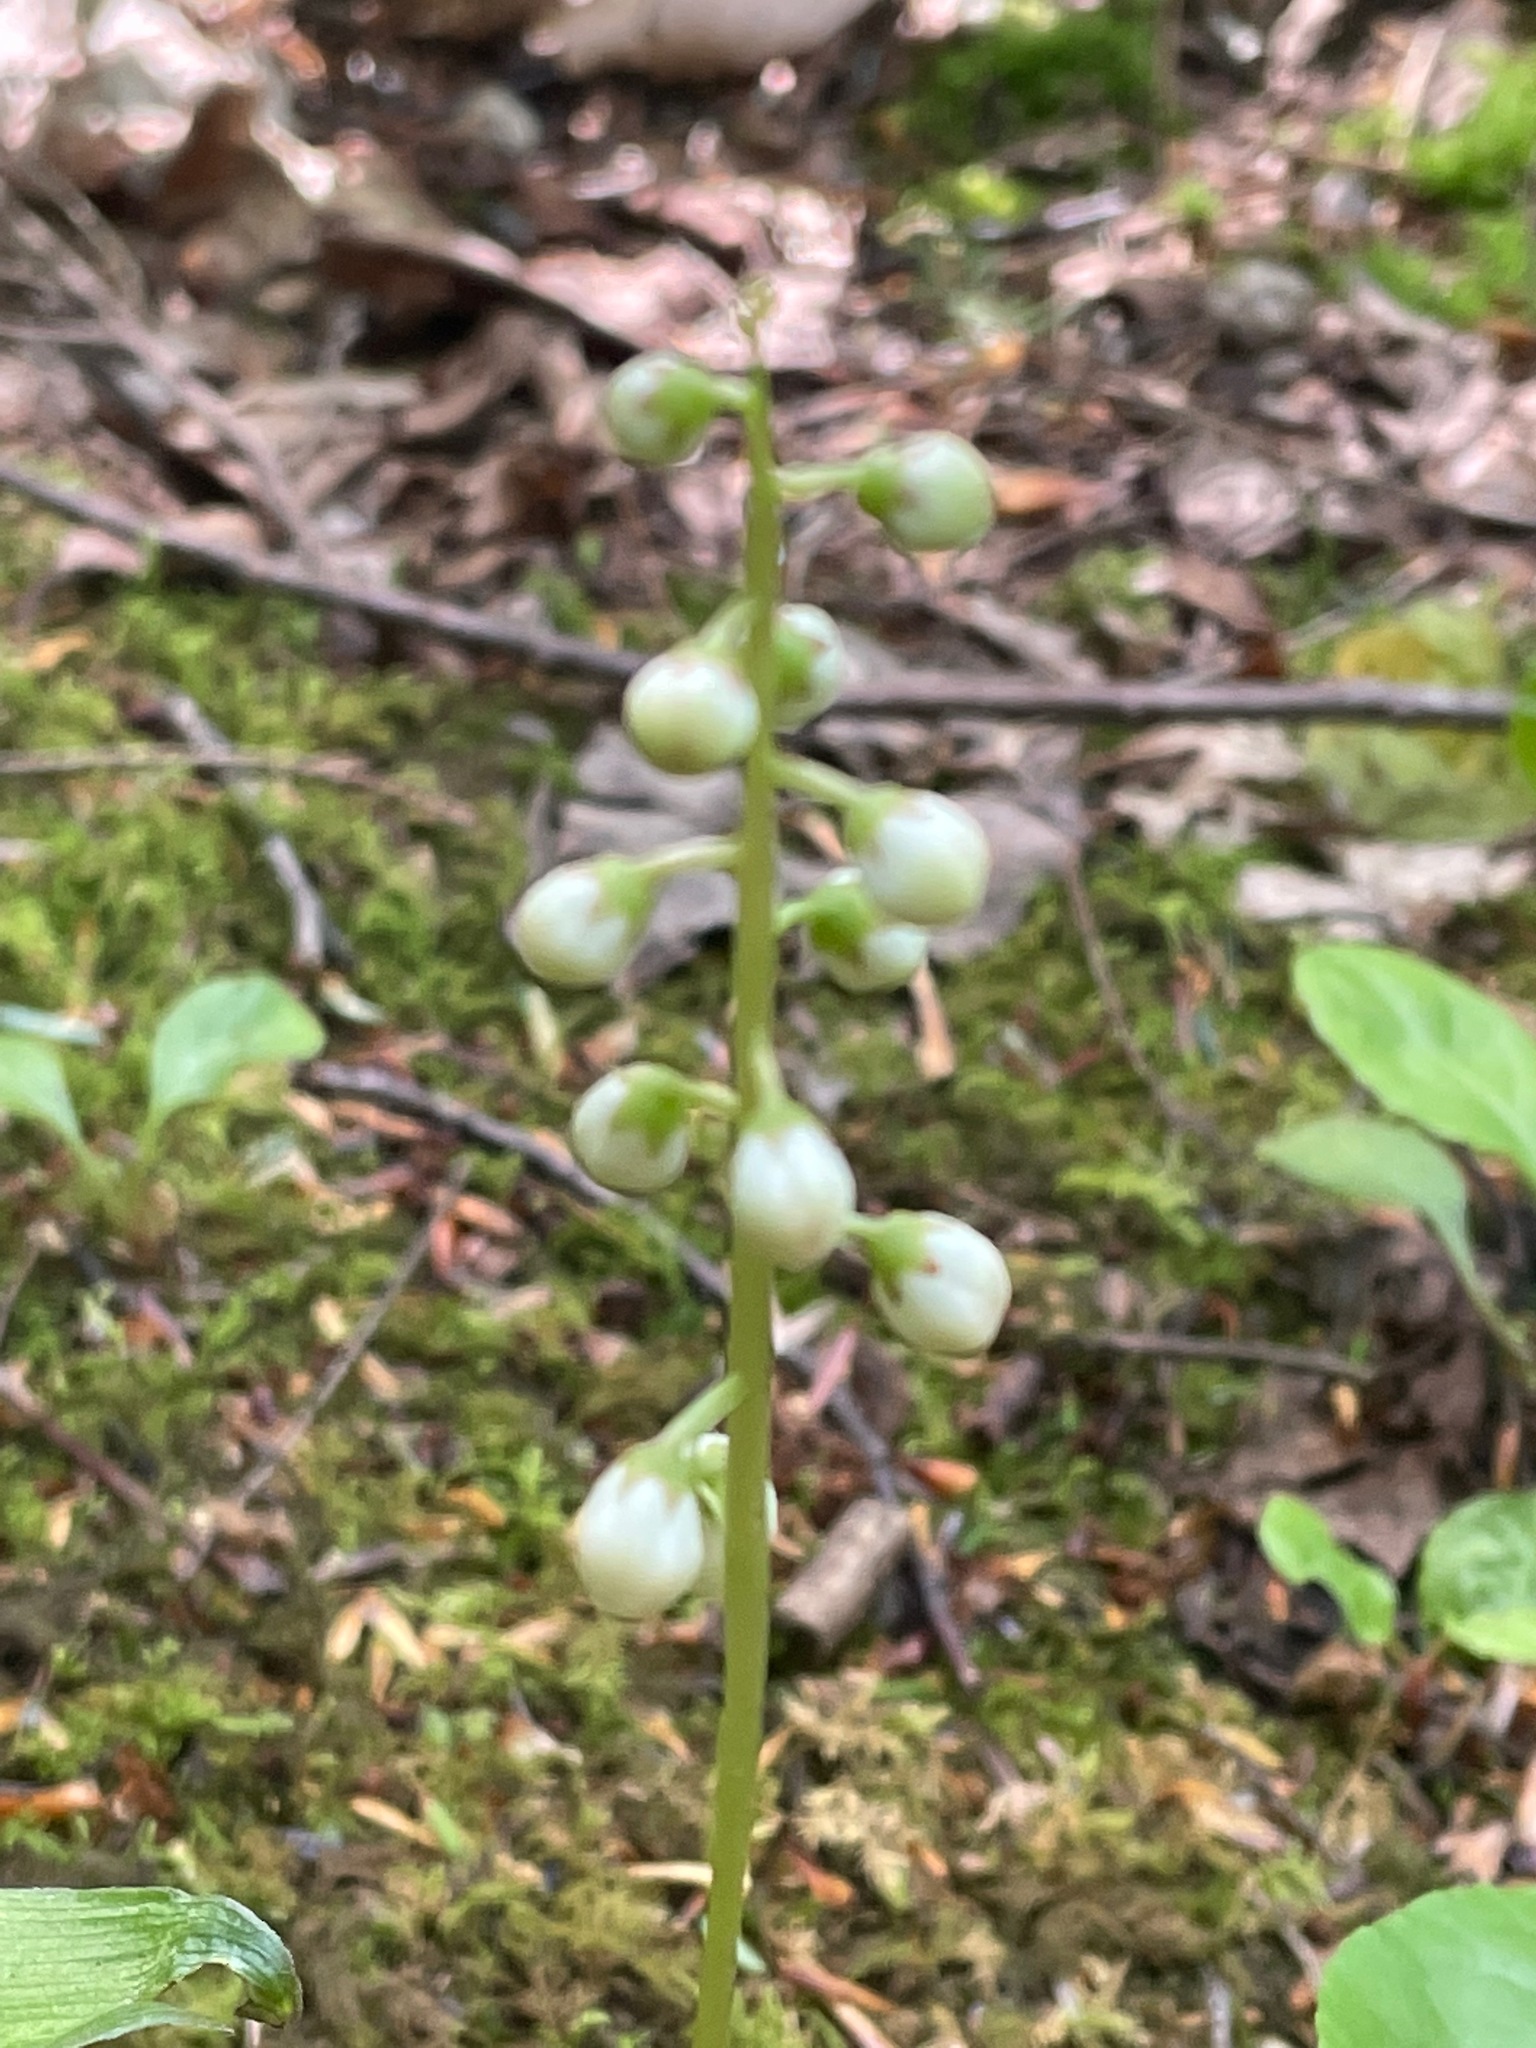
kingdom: Plantae
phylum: Tracheophyta
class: Magnoliopsida
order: Ericales
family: Ericaceae
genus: Pyrola
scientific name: Pyrola elliptica
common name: Shinleaf
